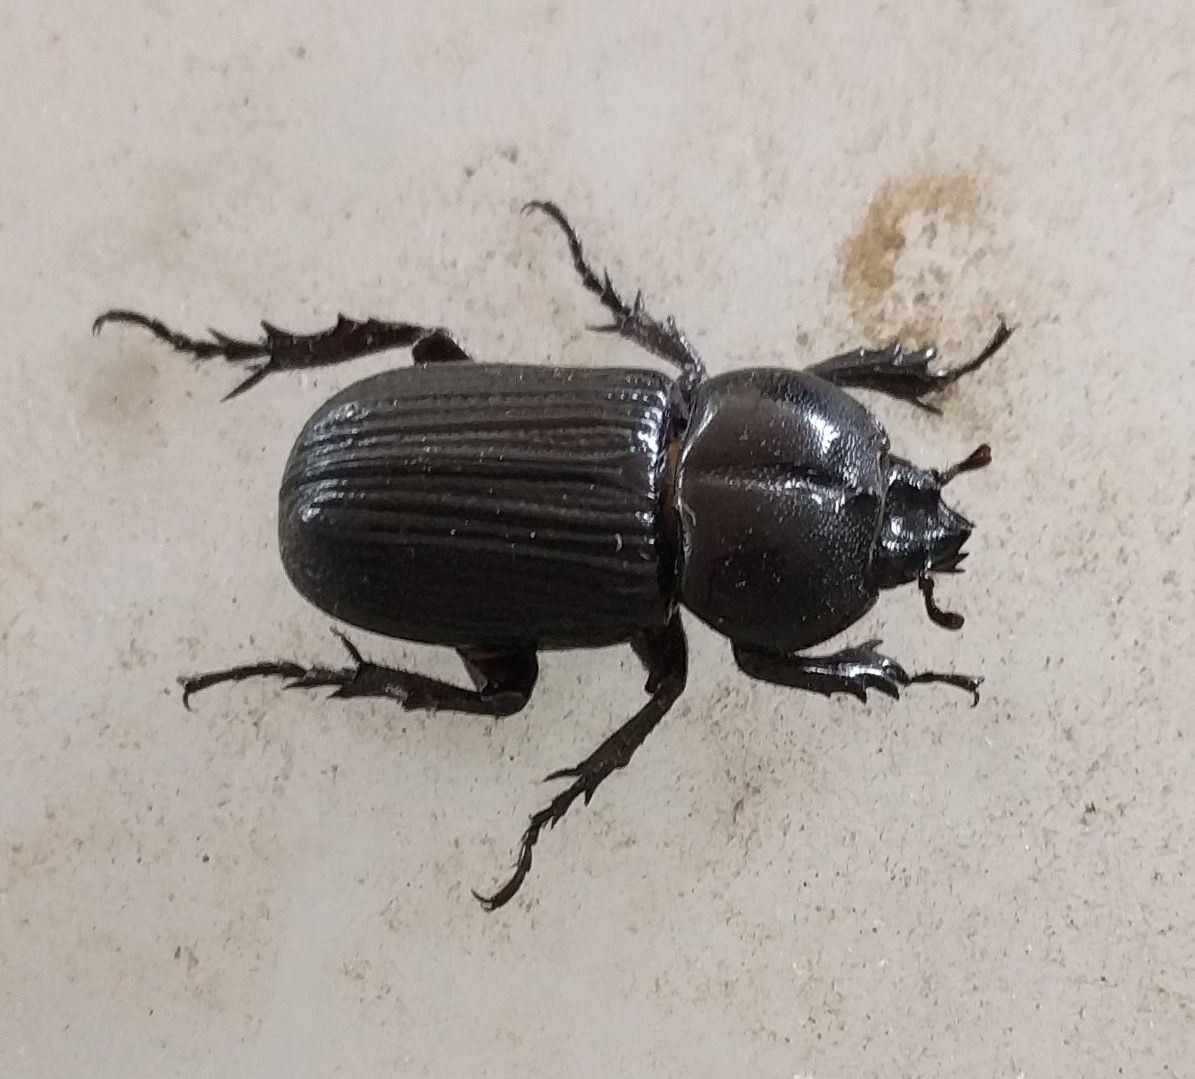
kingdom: Animalia
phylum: Arthropoda
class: Insecta
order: Coleoptera
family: Scarabaeidae
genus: Phileurus
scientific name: Phileurus valgus
